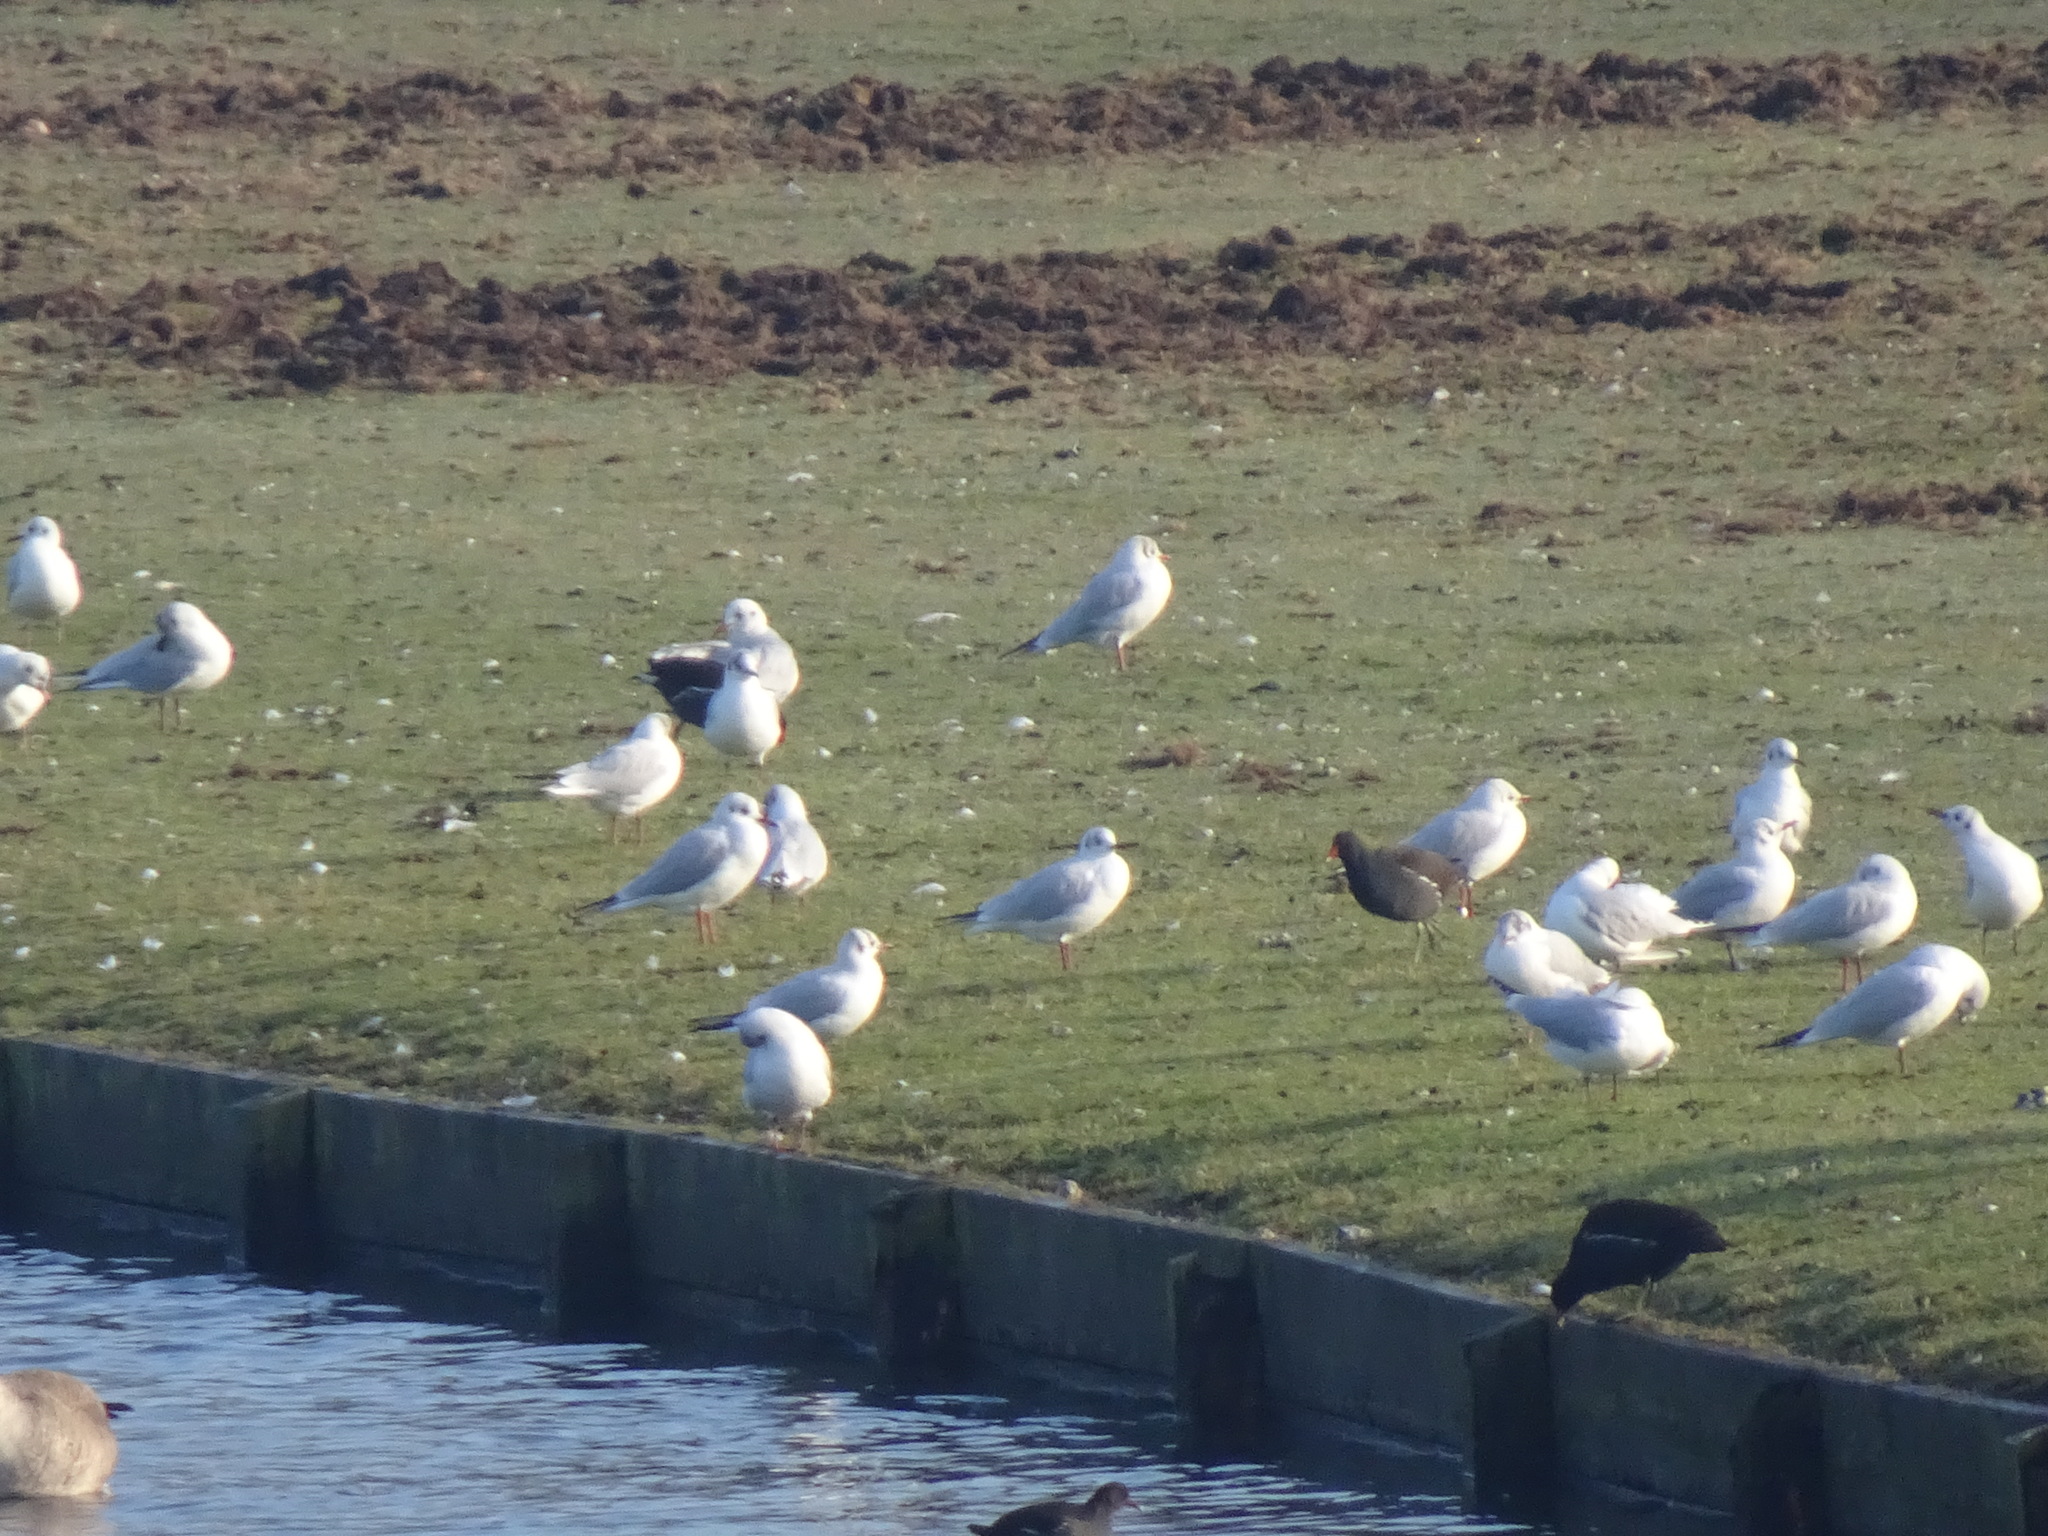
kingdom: Animalia
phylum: Chordata
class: Aves
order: Charadriiformes
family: Laridae
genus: Chroicocephalus
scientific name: Chroicocephalus ridibundus
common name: Black-headed gull
